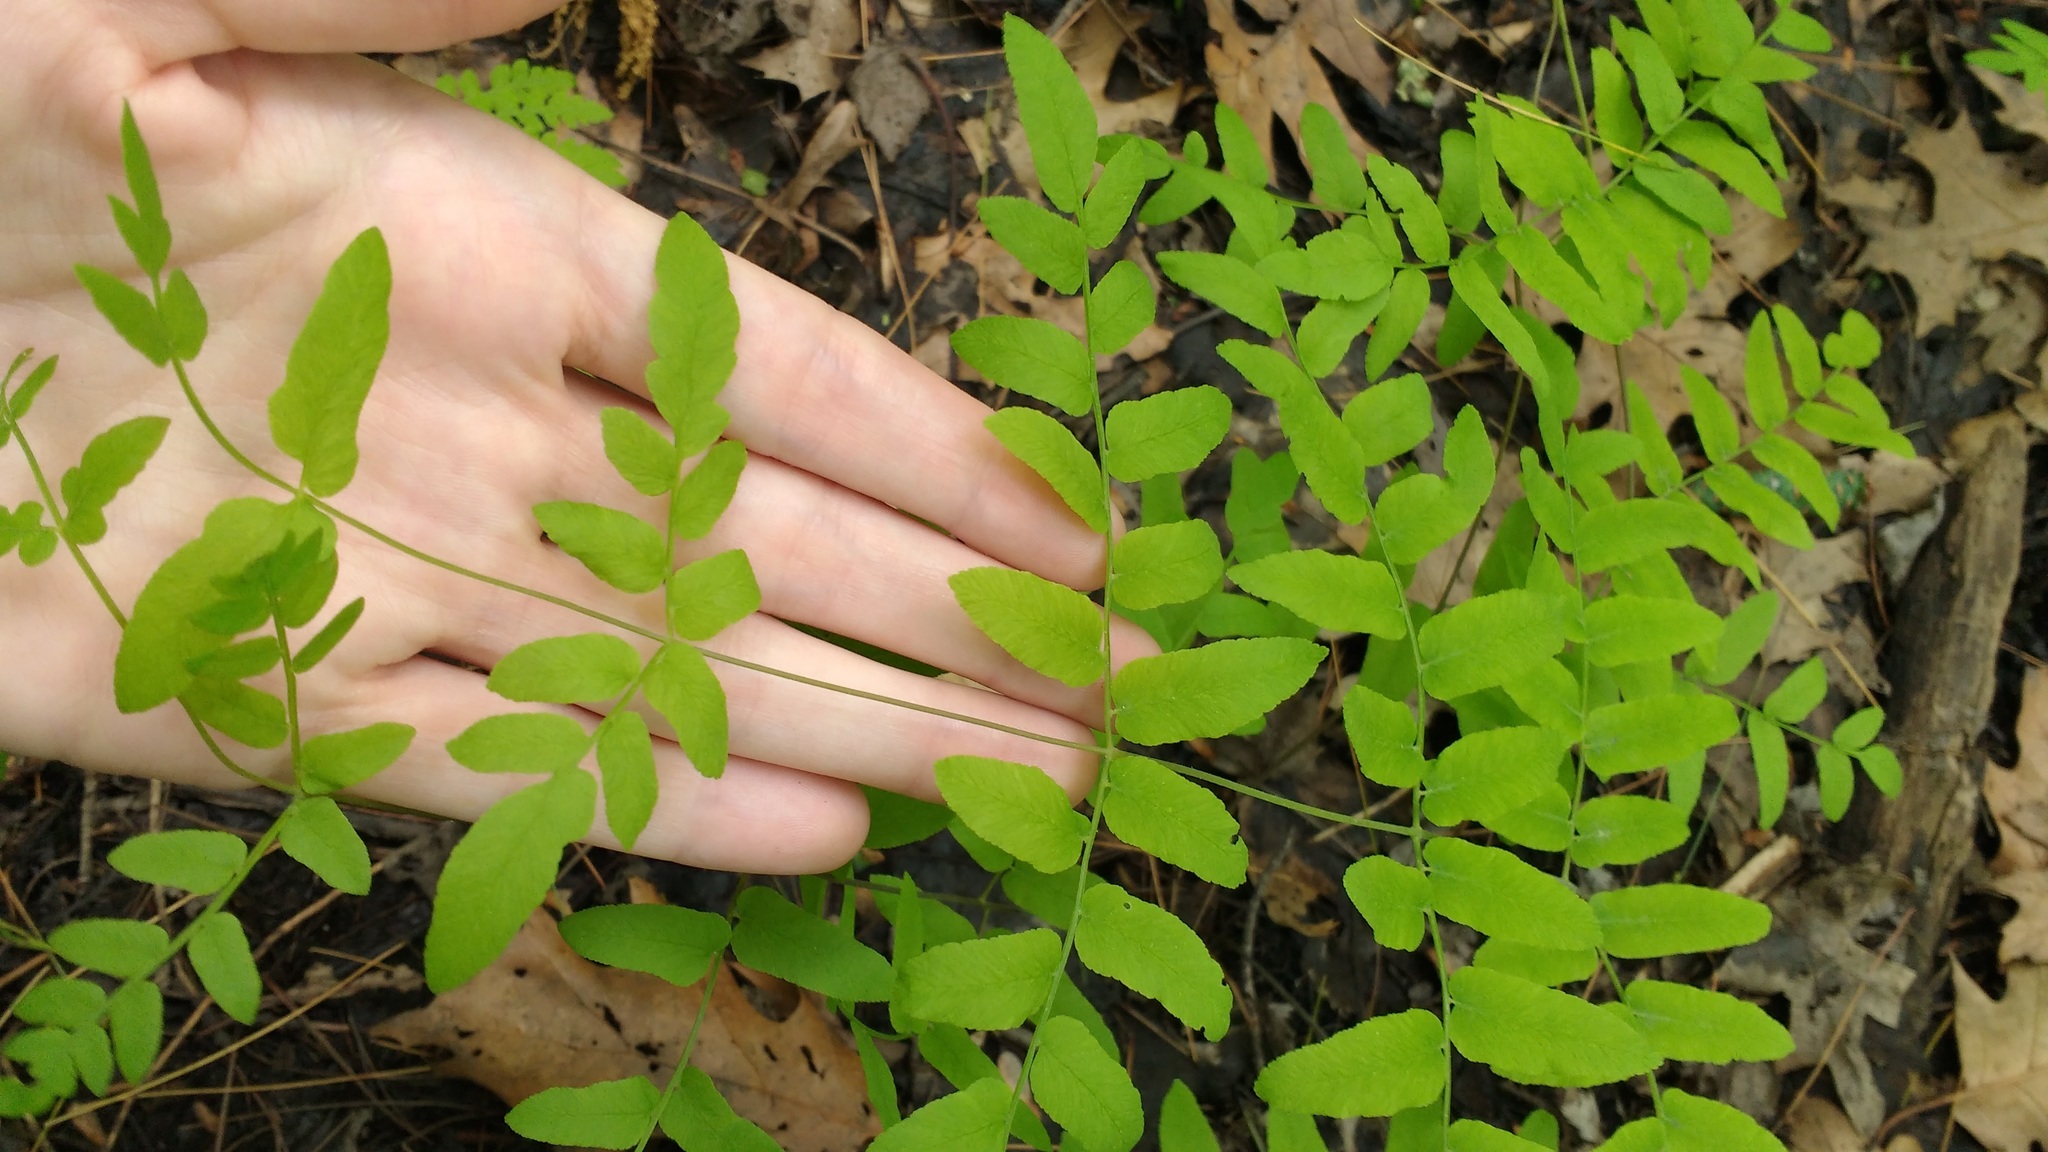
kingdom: Plantae
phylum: Tracheophyta
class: Polypodiopsida
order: Osmundales
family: Osmundaceae
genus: Osmunda
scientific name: Osmunda spectabilis
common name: American royal fern
